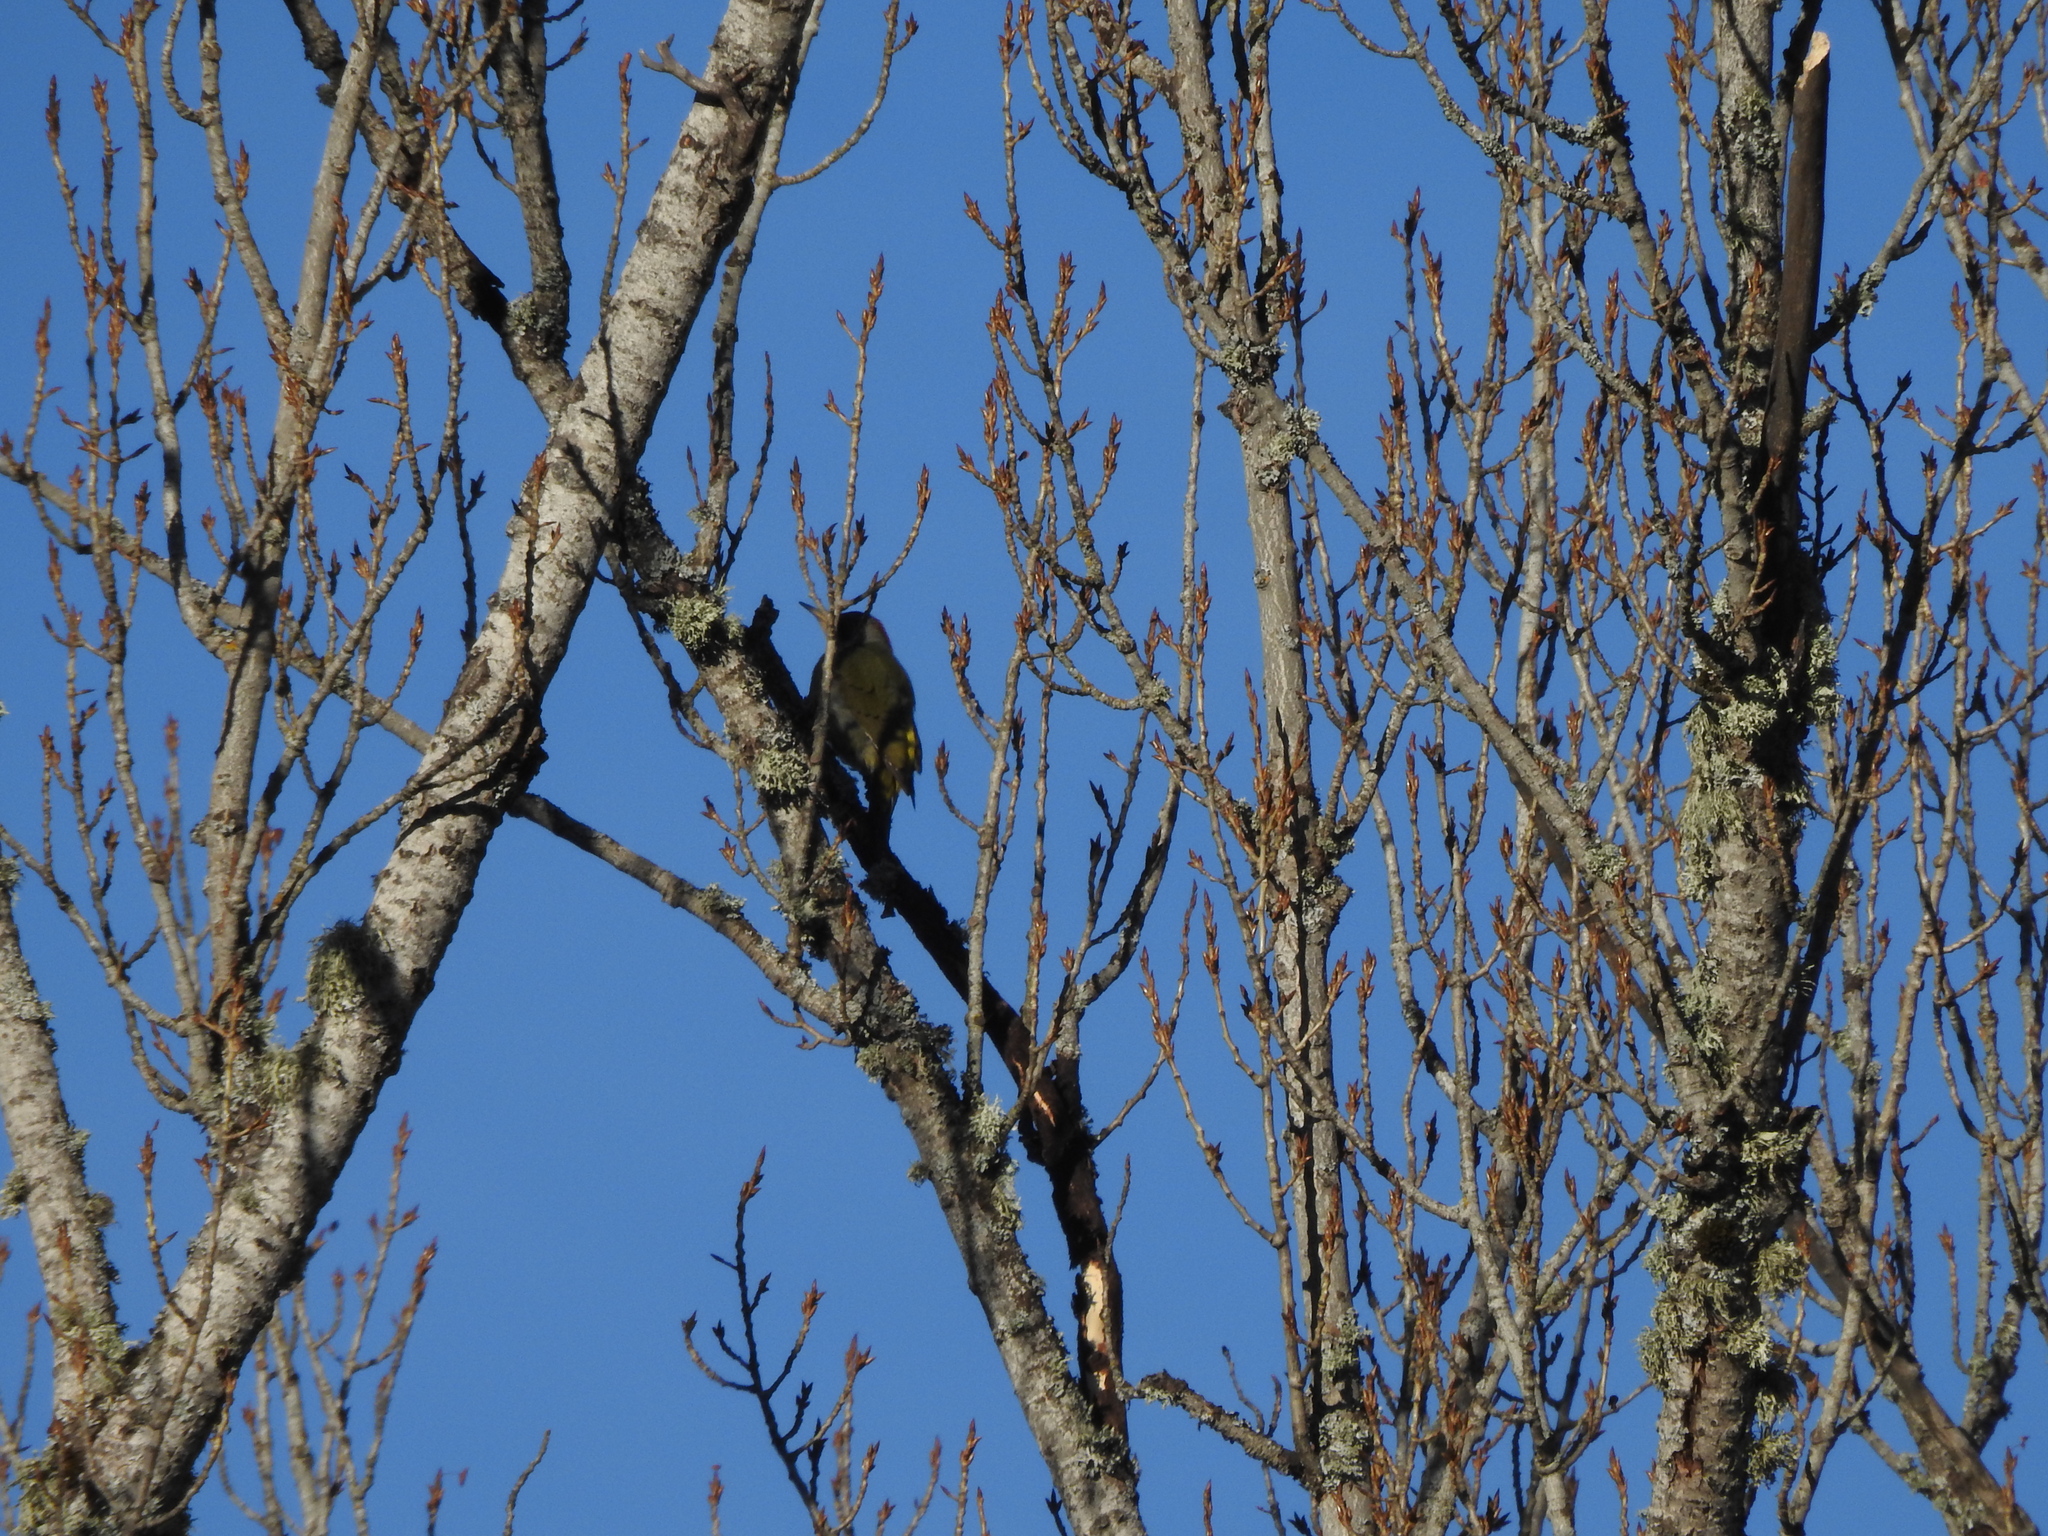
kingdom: Animalia
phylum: Chordata
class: Aves
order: Piciformes
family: Picidae
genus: Picus
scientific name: Picus sharpei
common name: Iberian green woodpecker
